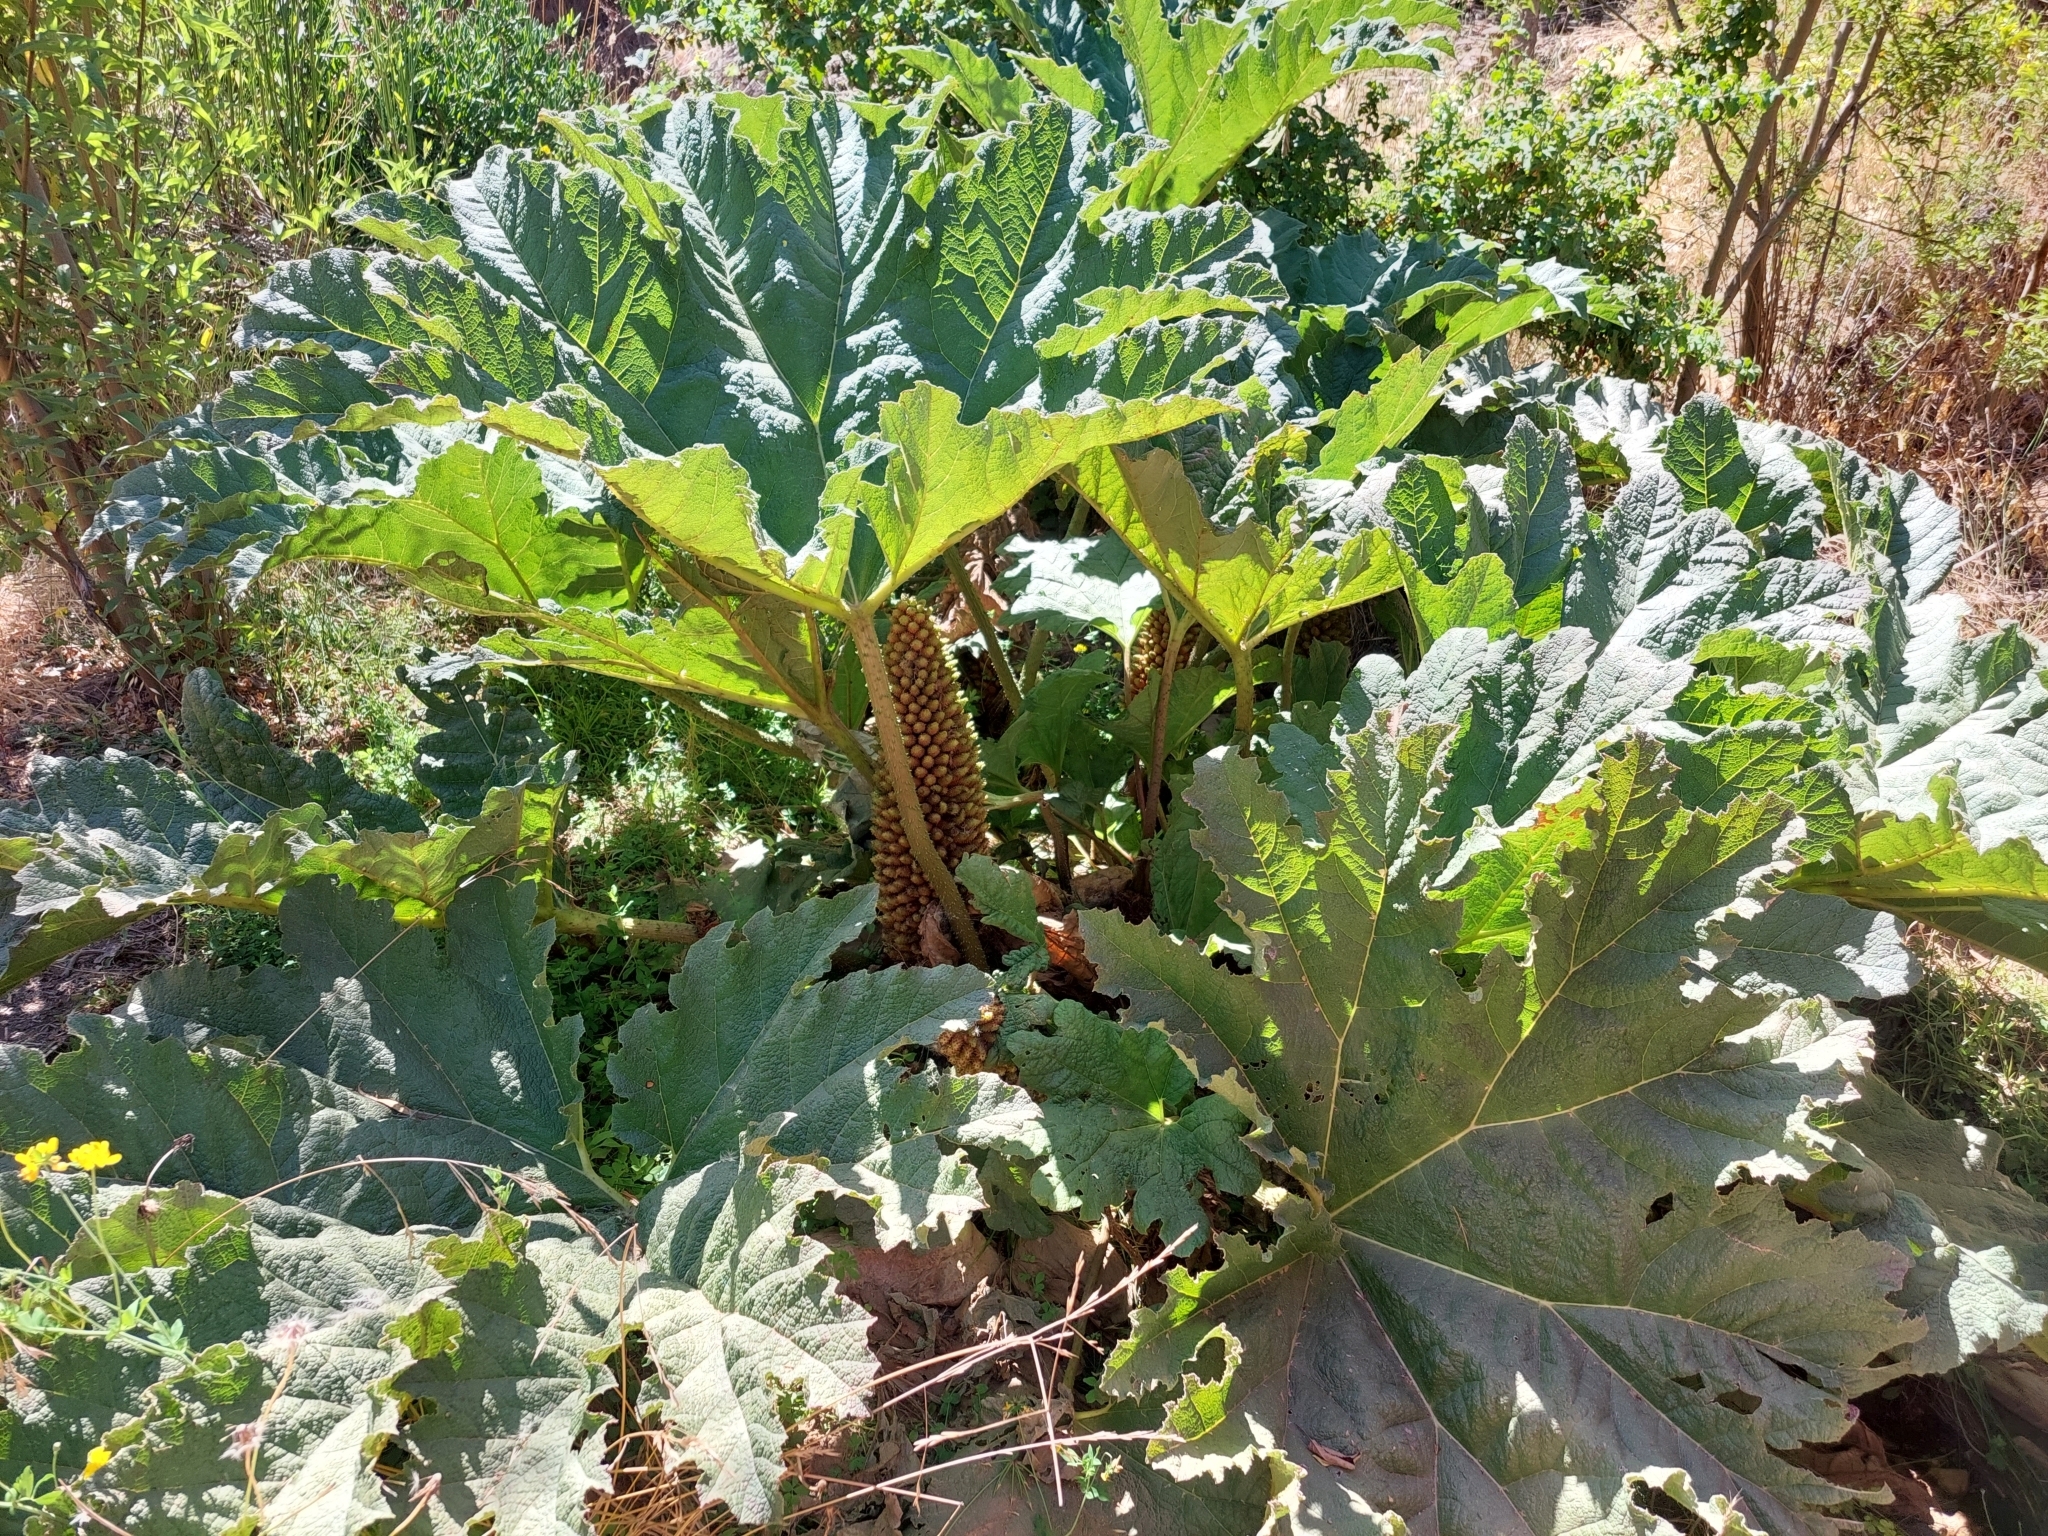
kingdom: Plantae
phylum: Tracheophyta
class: Magnoliopsida
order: Gunnerales
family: Gunneraceae
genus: Gunnera
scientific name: Gunnera tinctoria
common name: Giant-rhubarb
